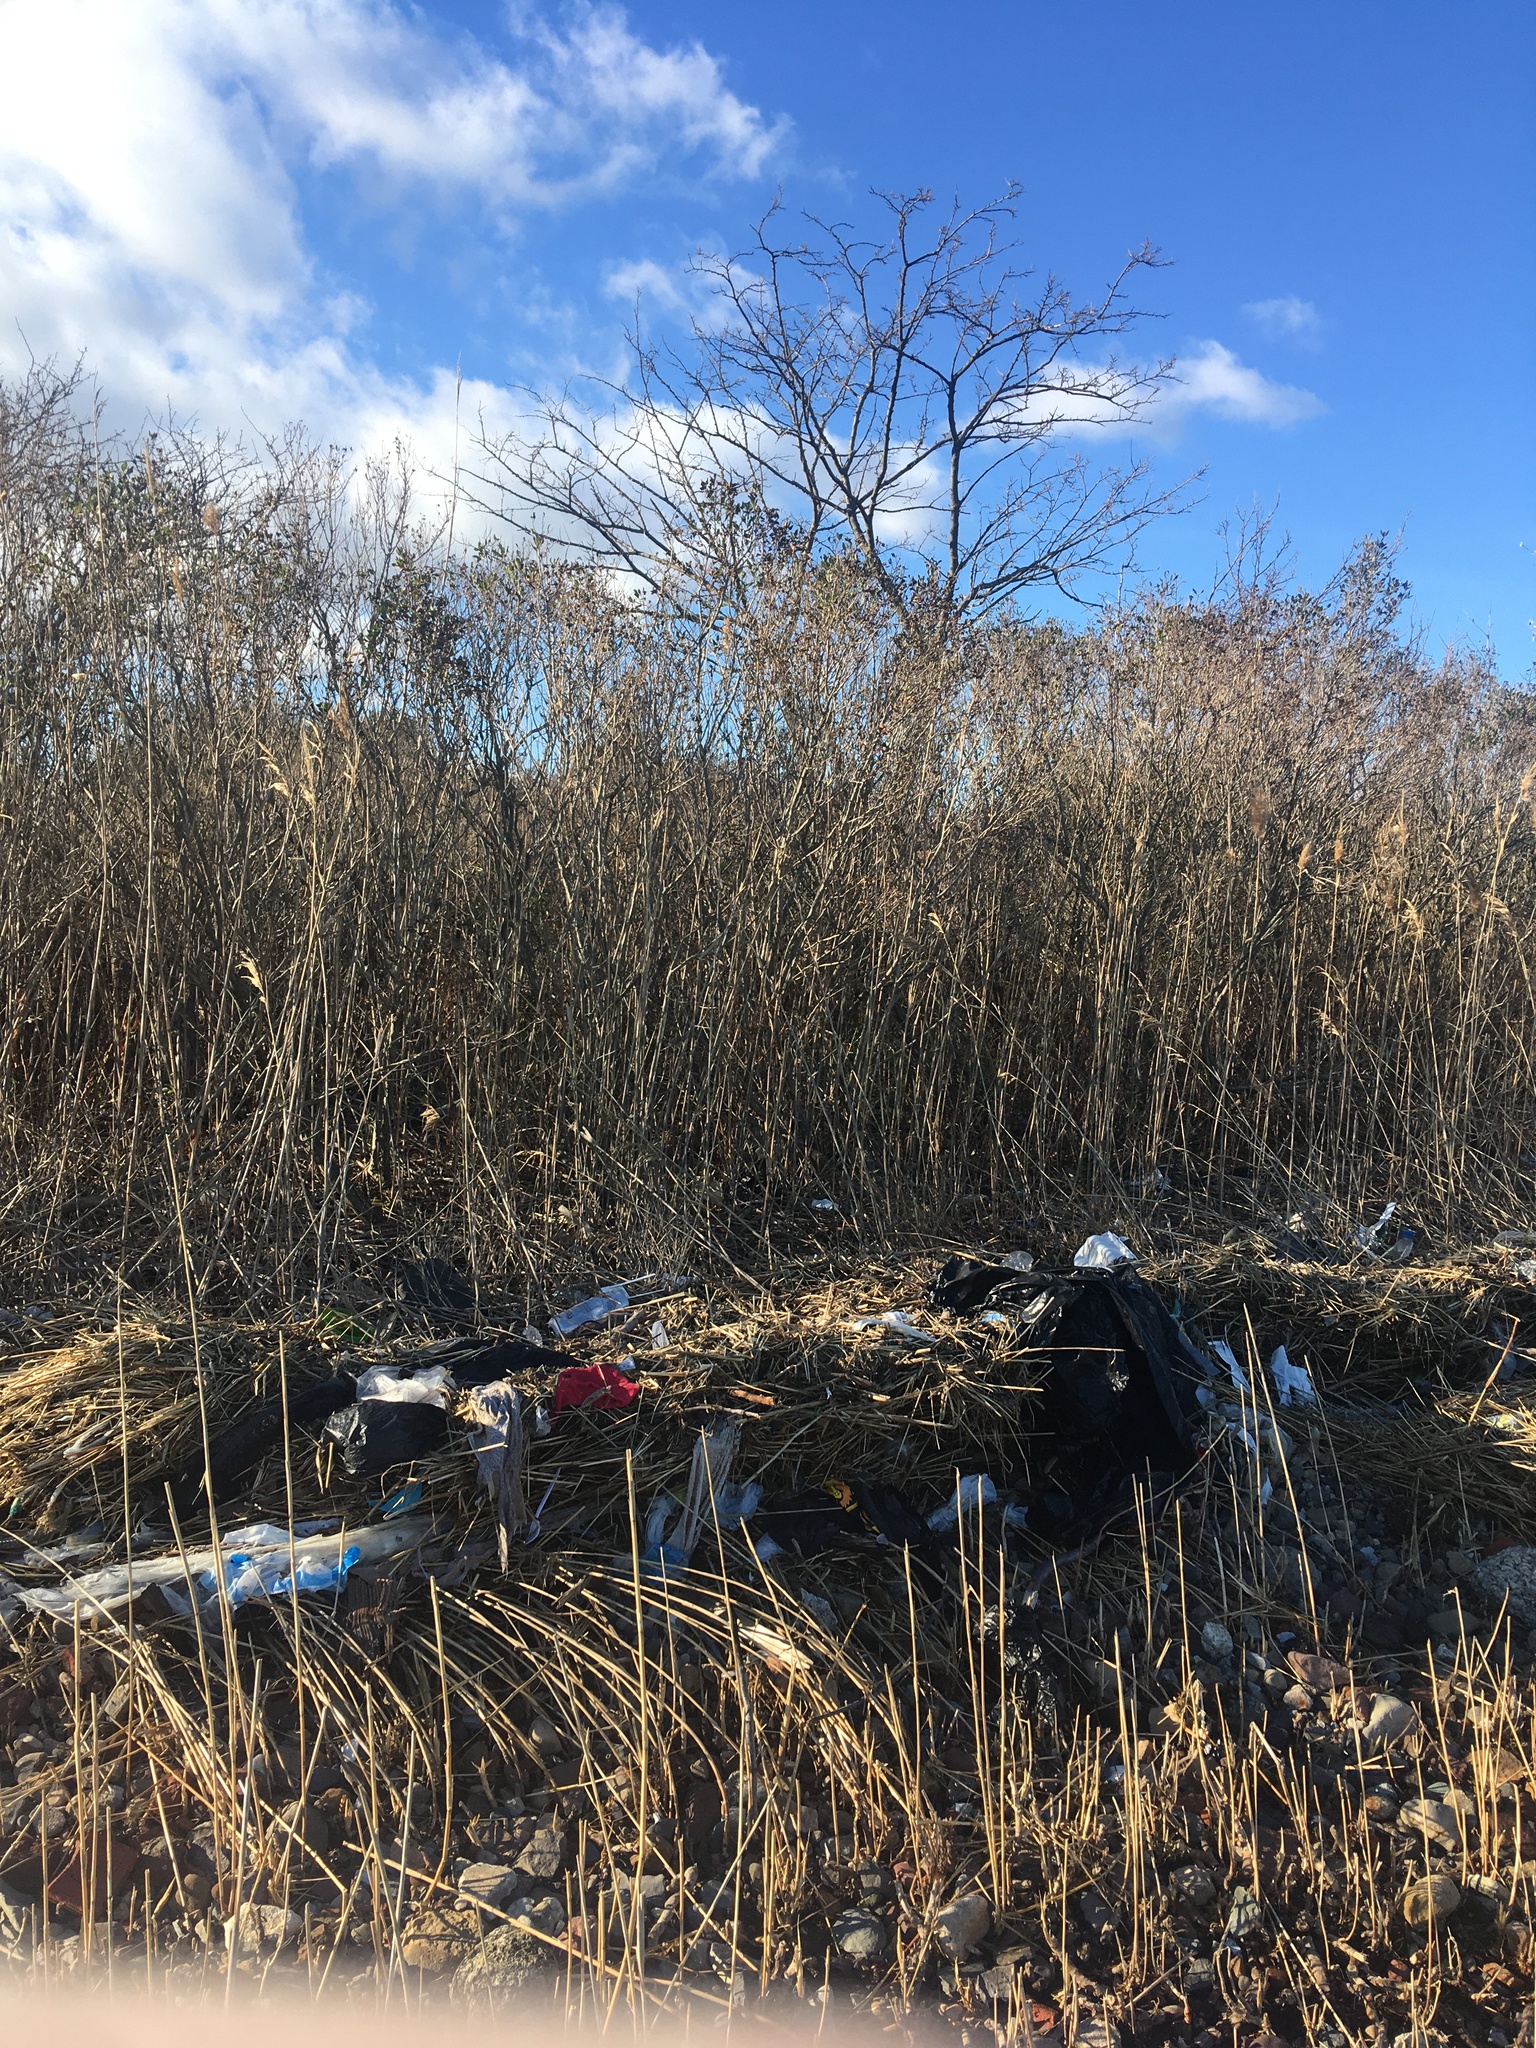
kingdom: Plantae
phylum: Tracheophyta
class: Magnoliopsida
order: Asterales
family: Asteraceae
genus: Baccharis
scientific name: Baccharis halimifolia
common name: Eastern baccharis
